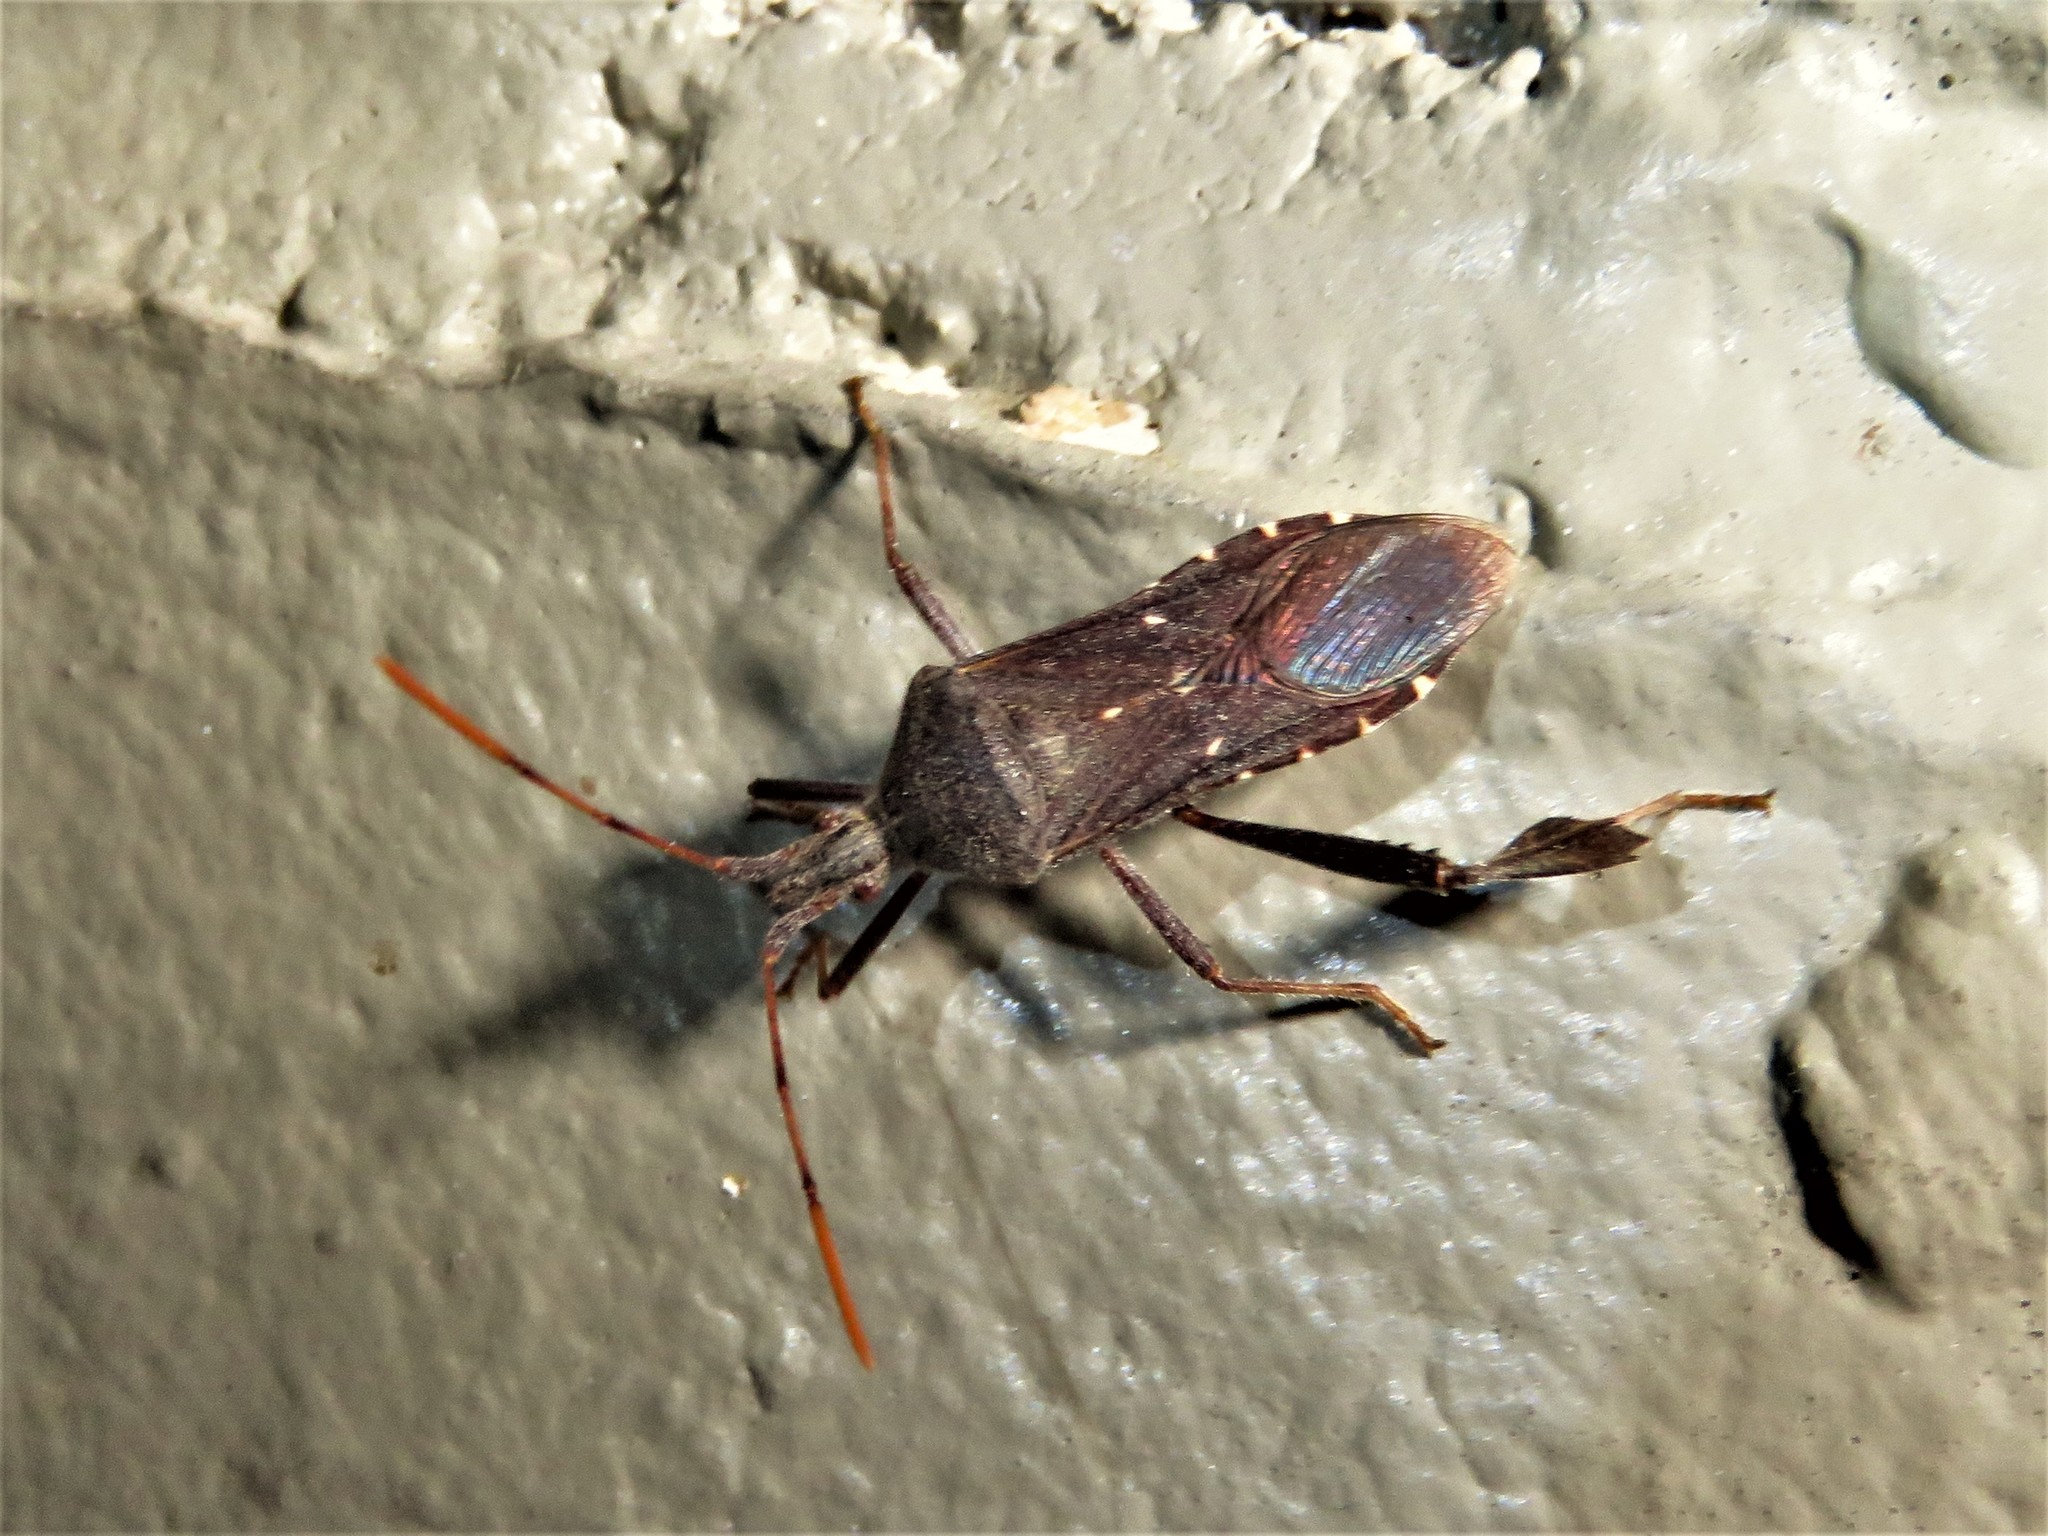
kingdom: Animalia
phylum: Arthropoda
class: Insecta
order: Hemiptera
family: Coreidae
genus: Leptoglossus
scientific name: Leptoglossus oppositus
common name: Northern leaf-footed bug
